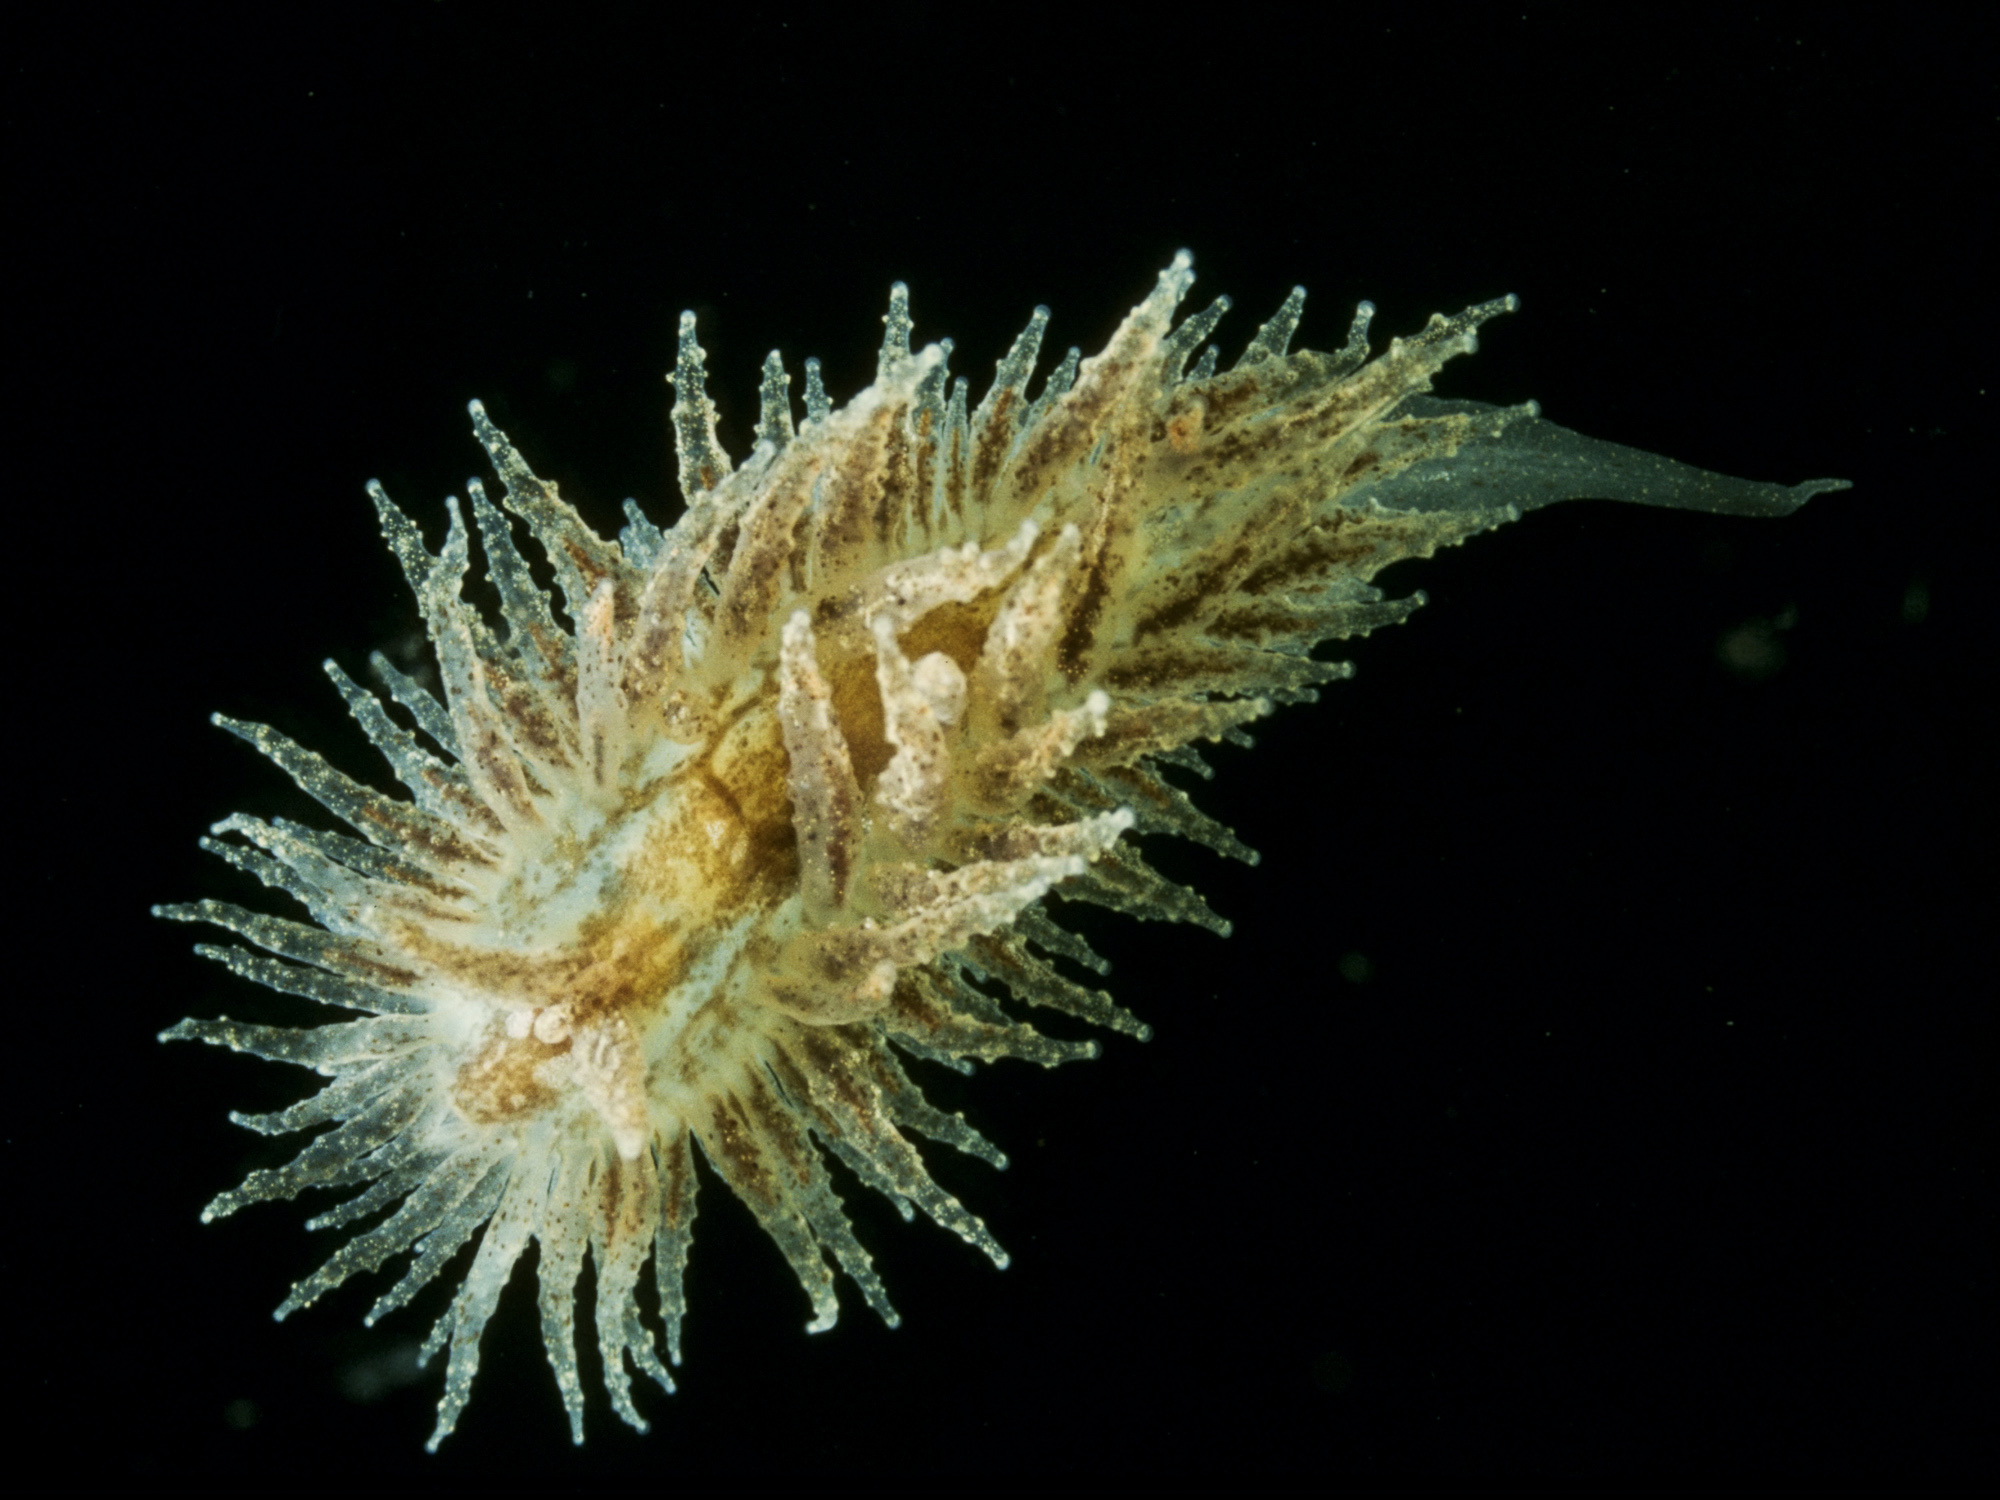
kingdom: Animalia
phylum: Mollusca
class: Gastropoda
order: Nudibranchia
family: Janolidae
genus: Janolus
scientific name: Janolus hyalinus
